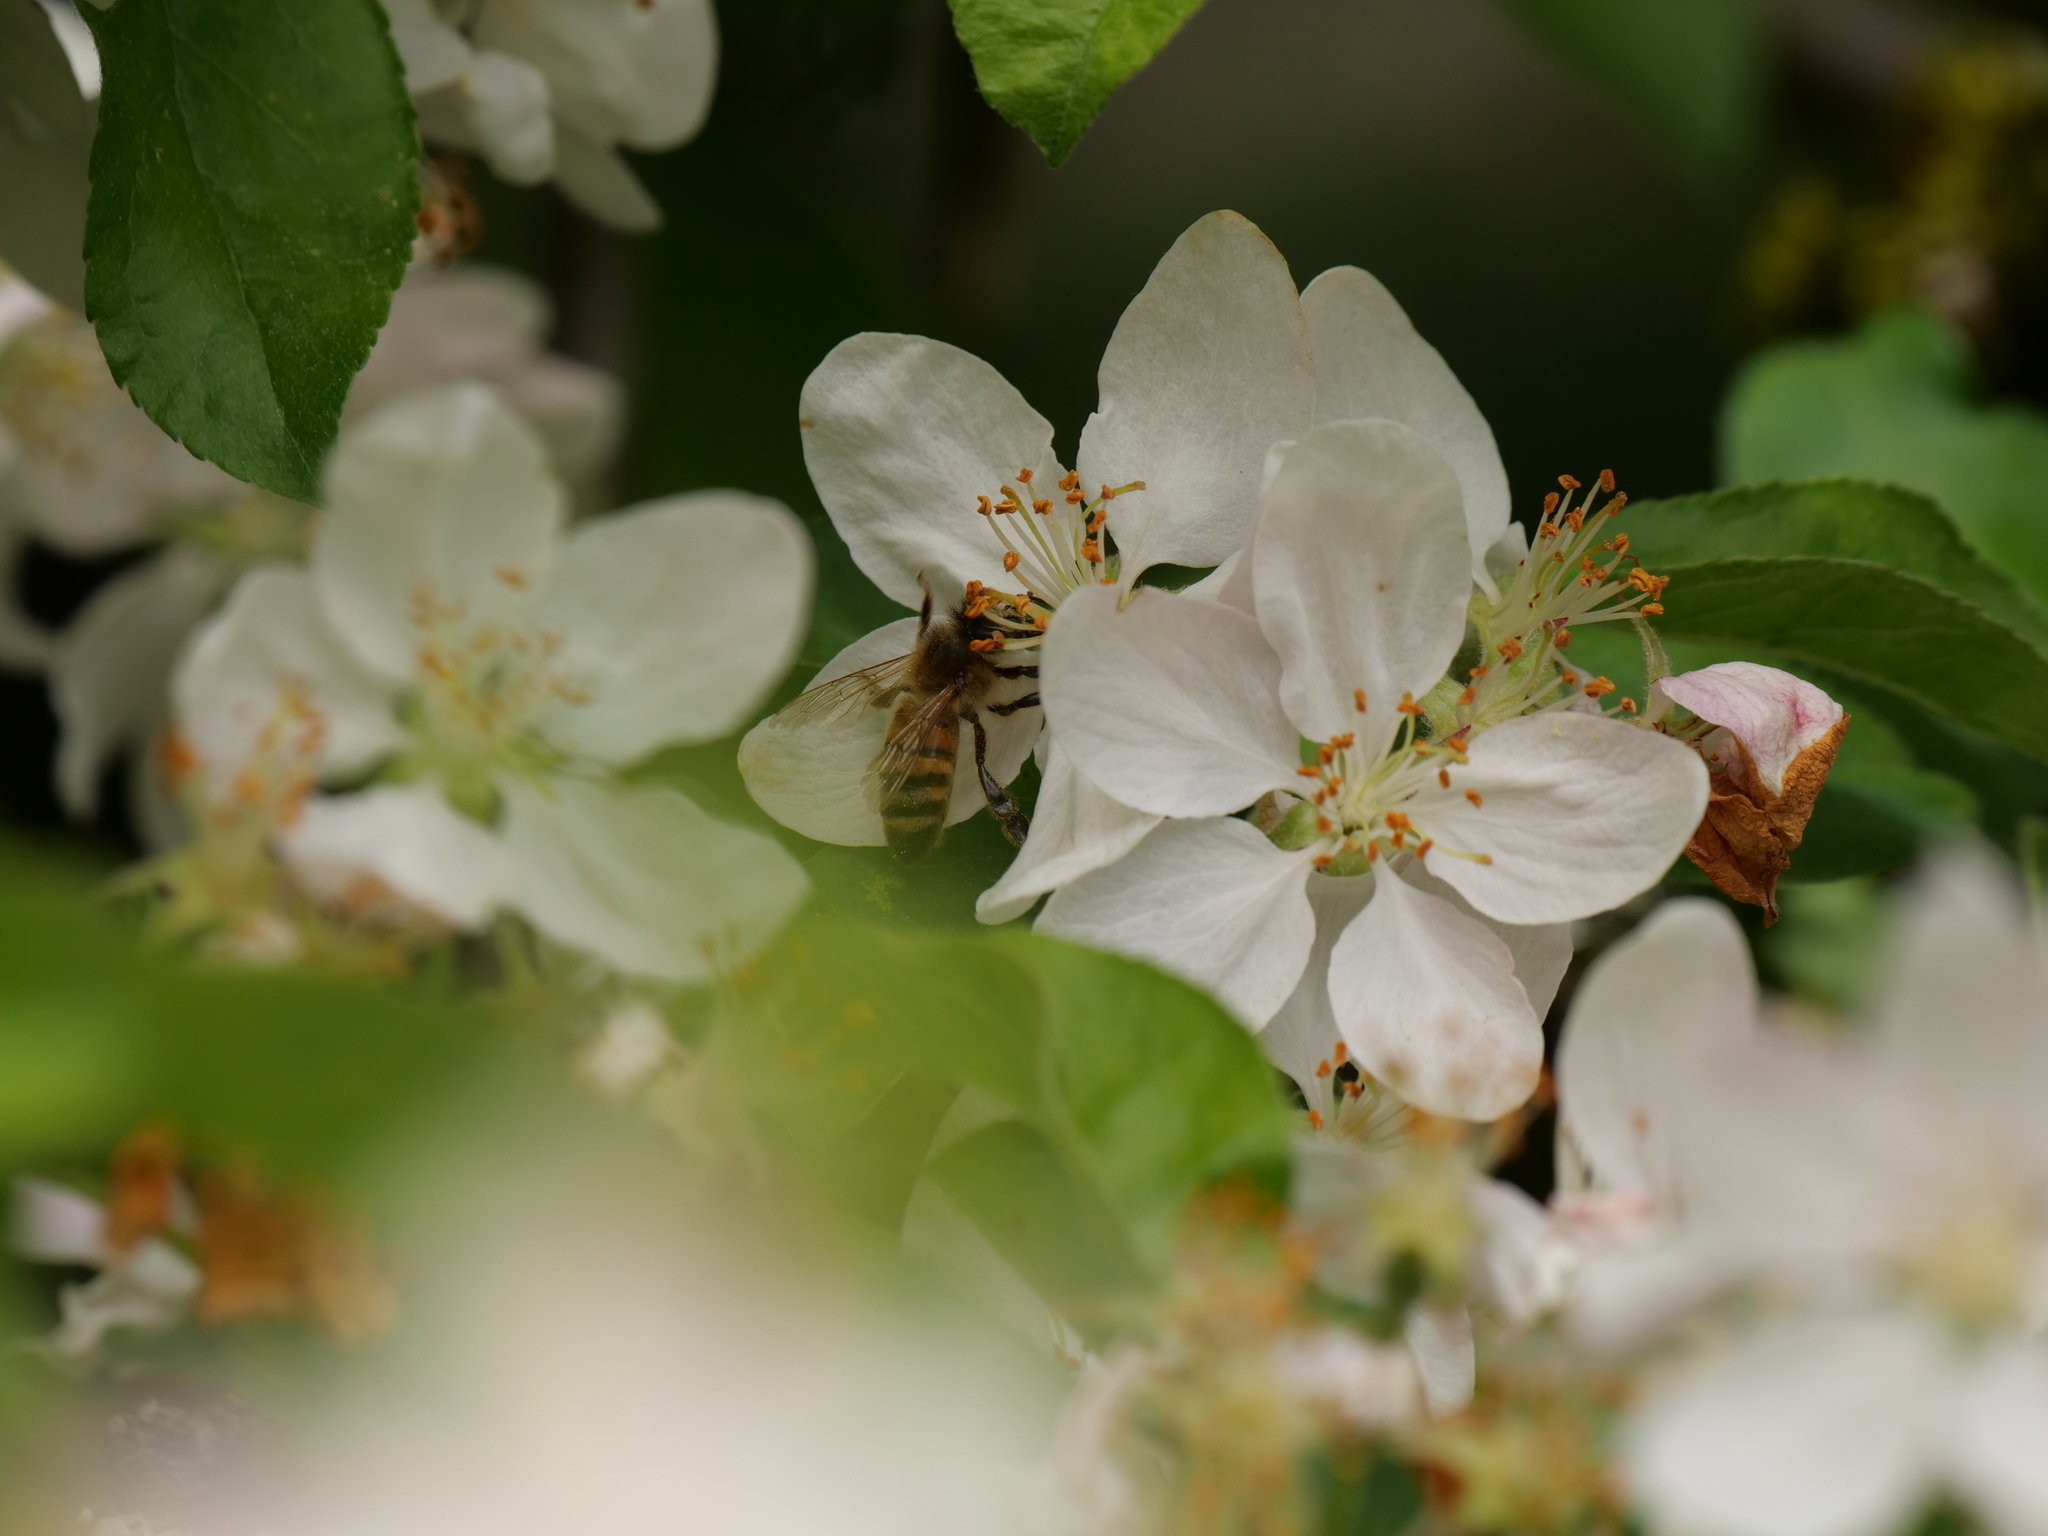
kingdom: Animalia
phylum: Arthropoda
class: Insecta
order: Hymenoptera
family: Apidae
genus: Apis
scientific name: Apis mellifera
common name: Honey bee
